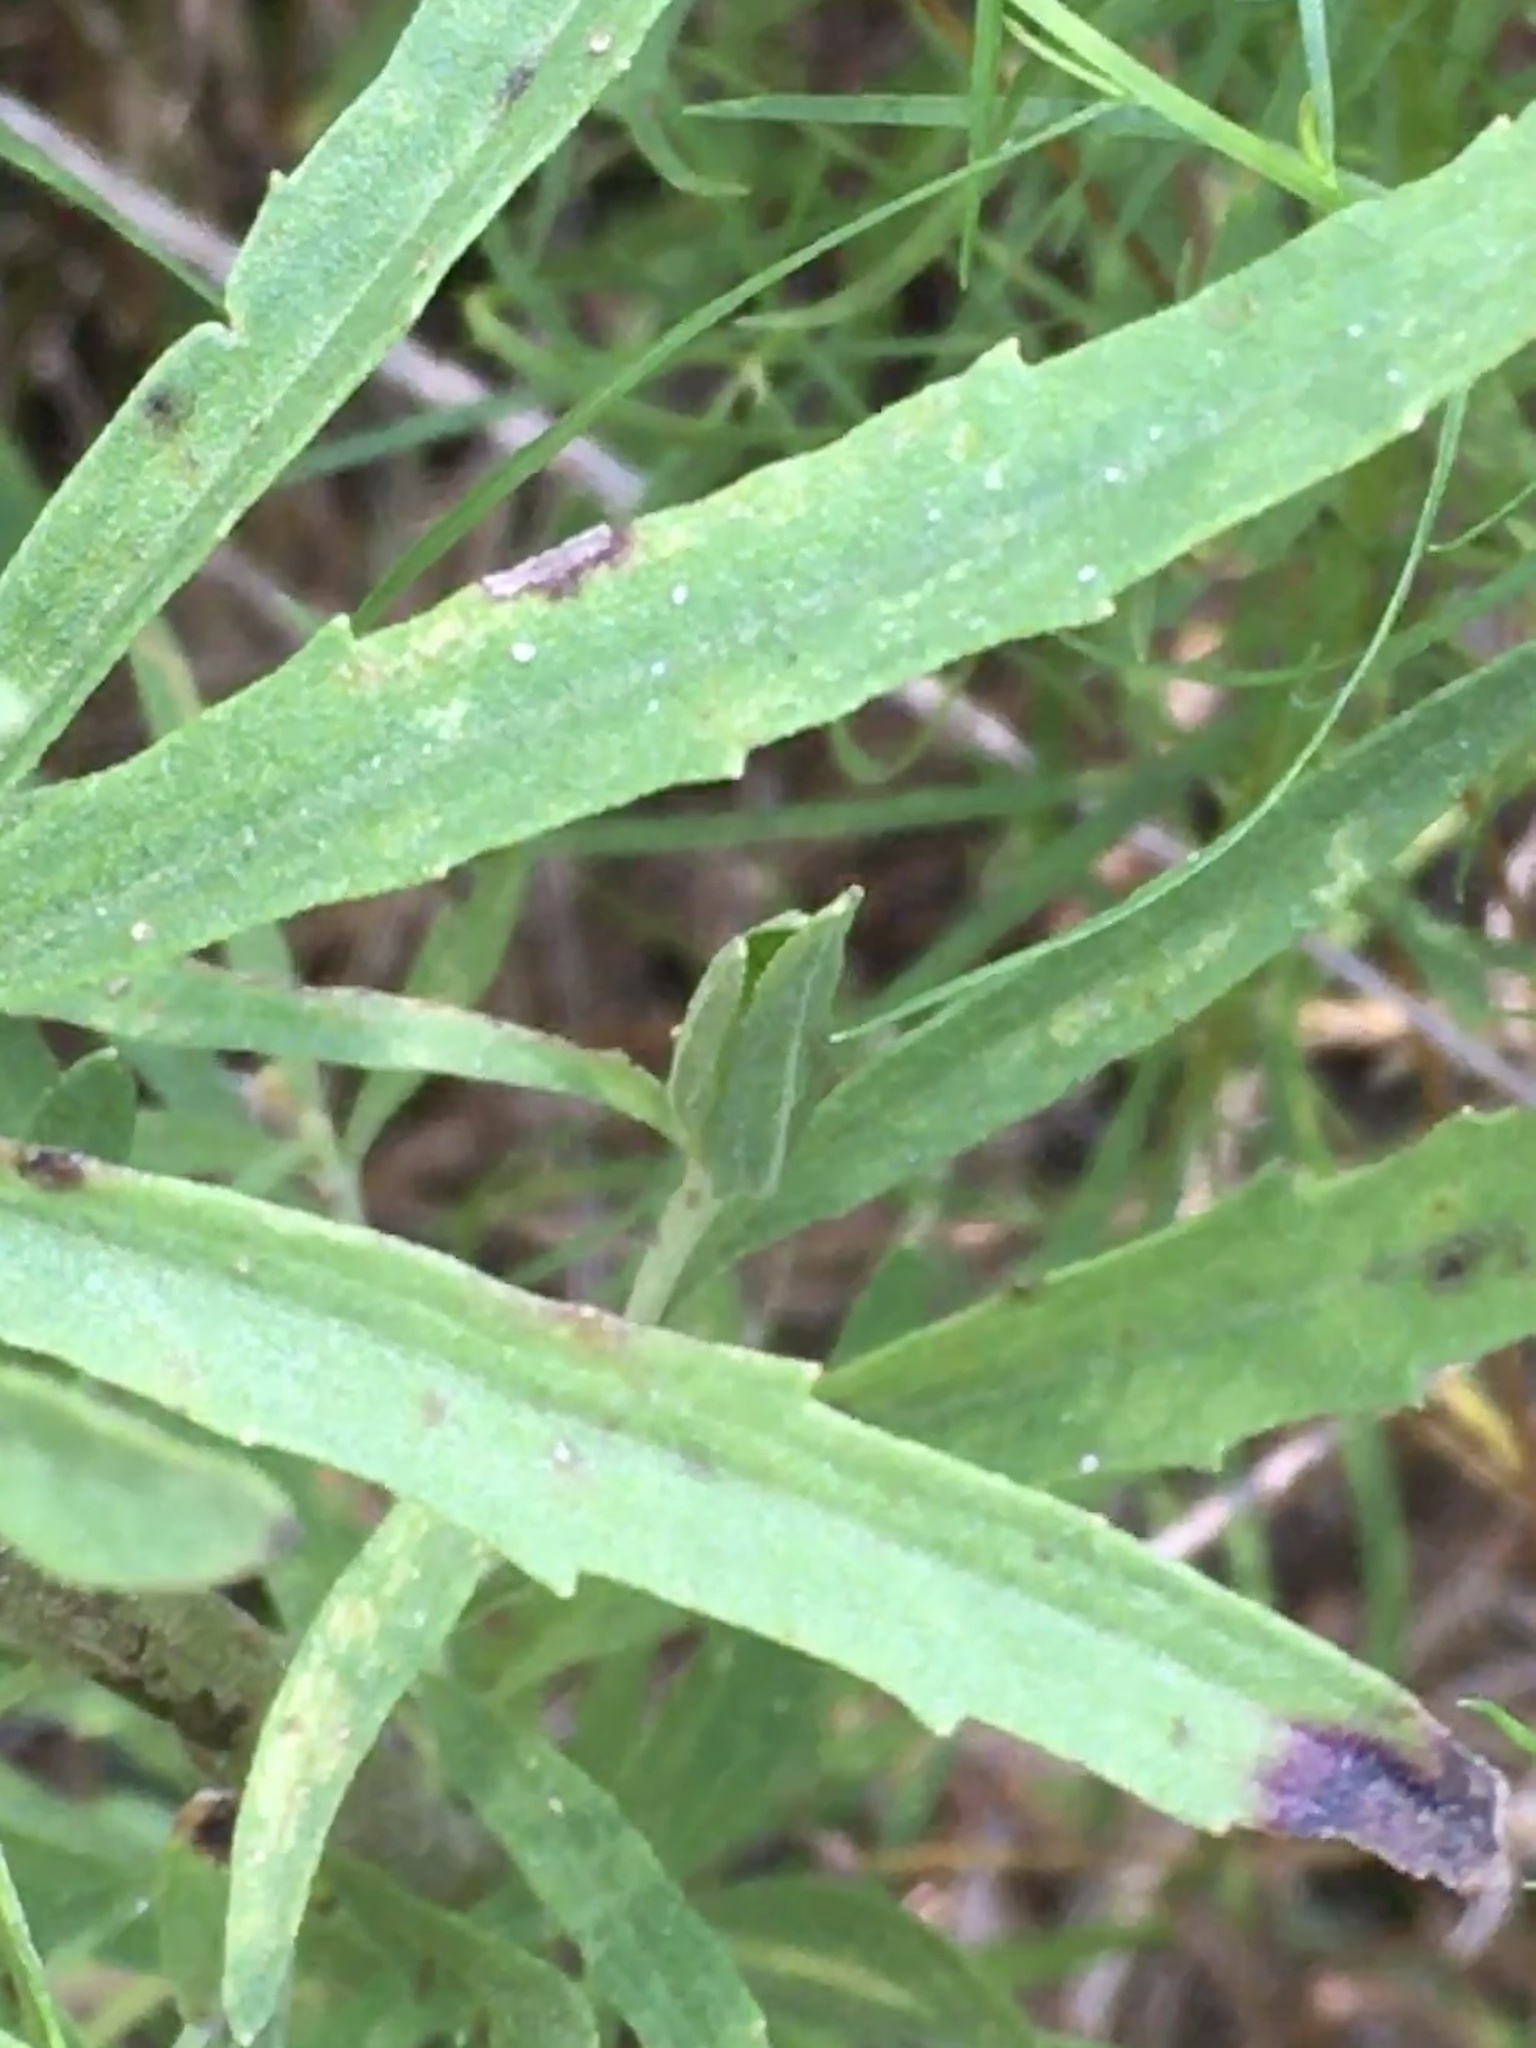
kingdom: Plantae
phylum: Tracheophyta
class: Magnoliopsida
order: Asterales
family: Asteraceae
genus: Eupatorium
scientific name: Eupatorium torreyanum
